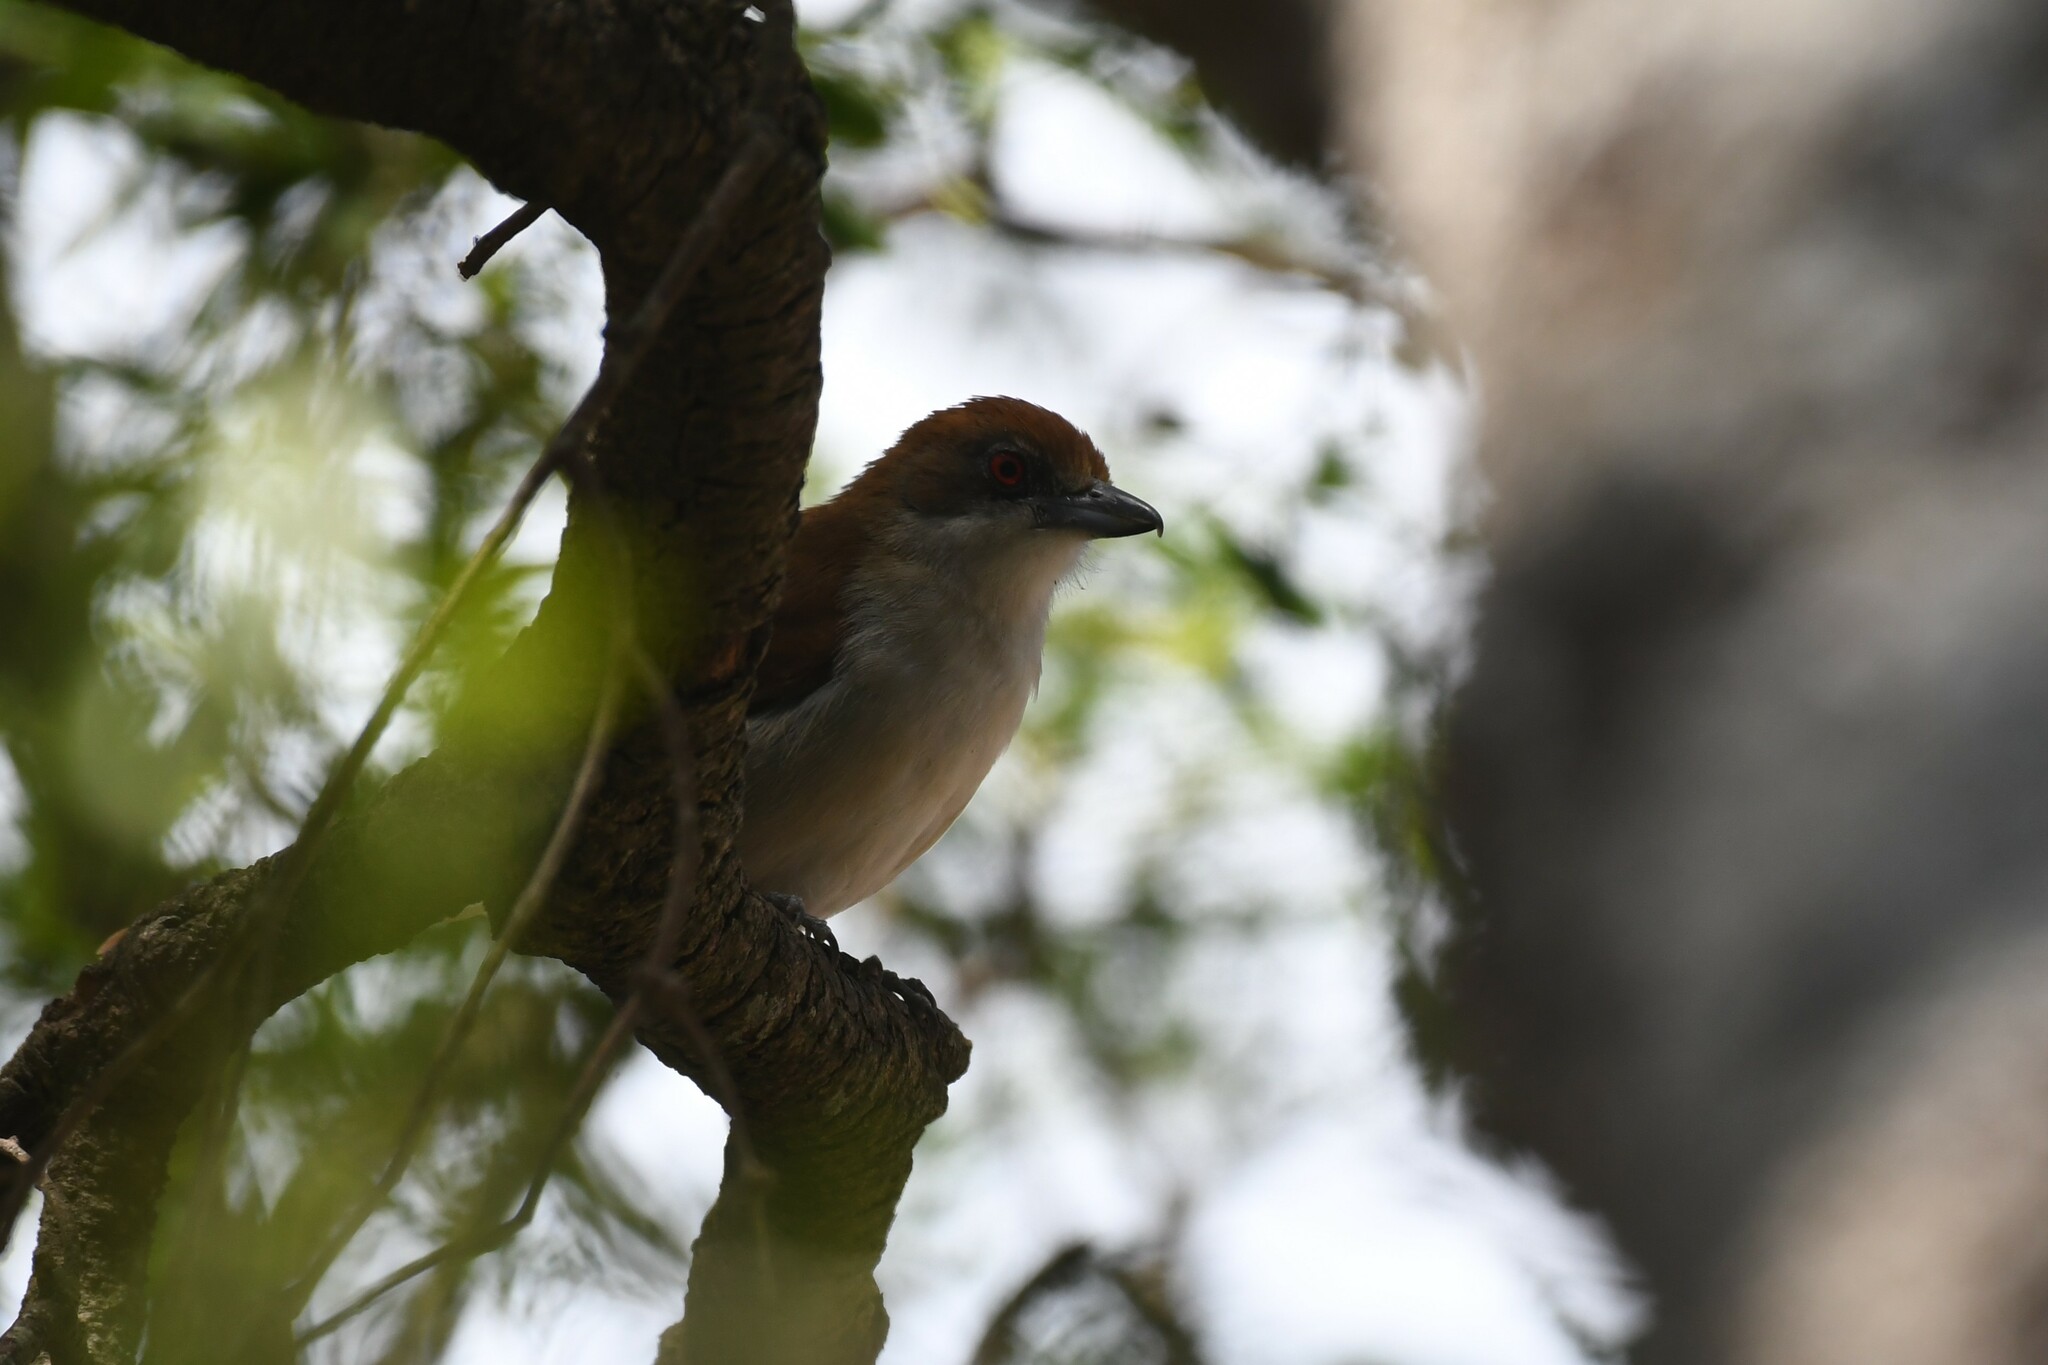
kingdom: Animalia
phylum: Chordata
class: Aves
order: Passeriformes
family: Thamnophilidae
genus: Taraba
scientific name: Taraba major
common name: Great antshrike
